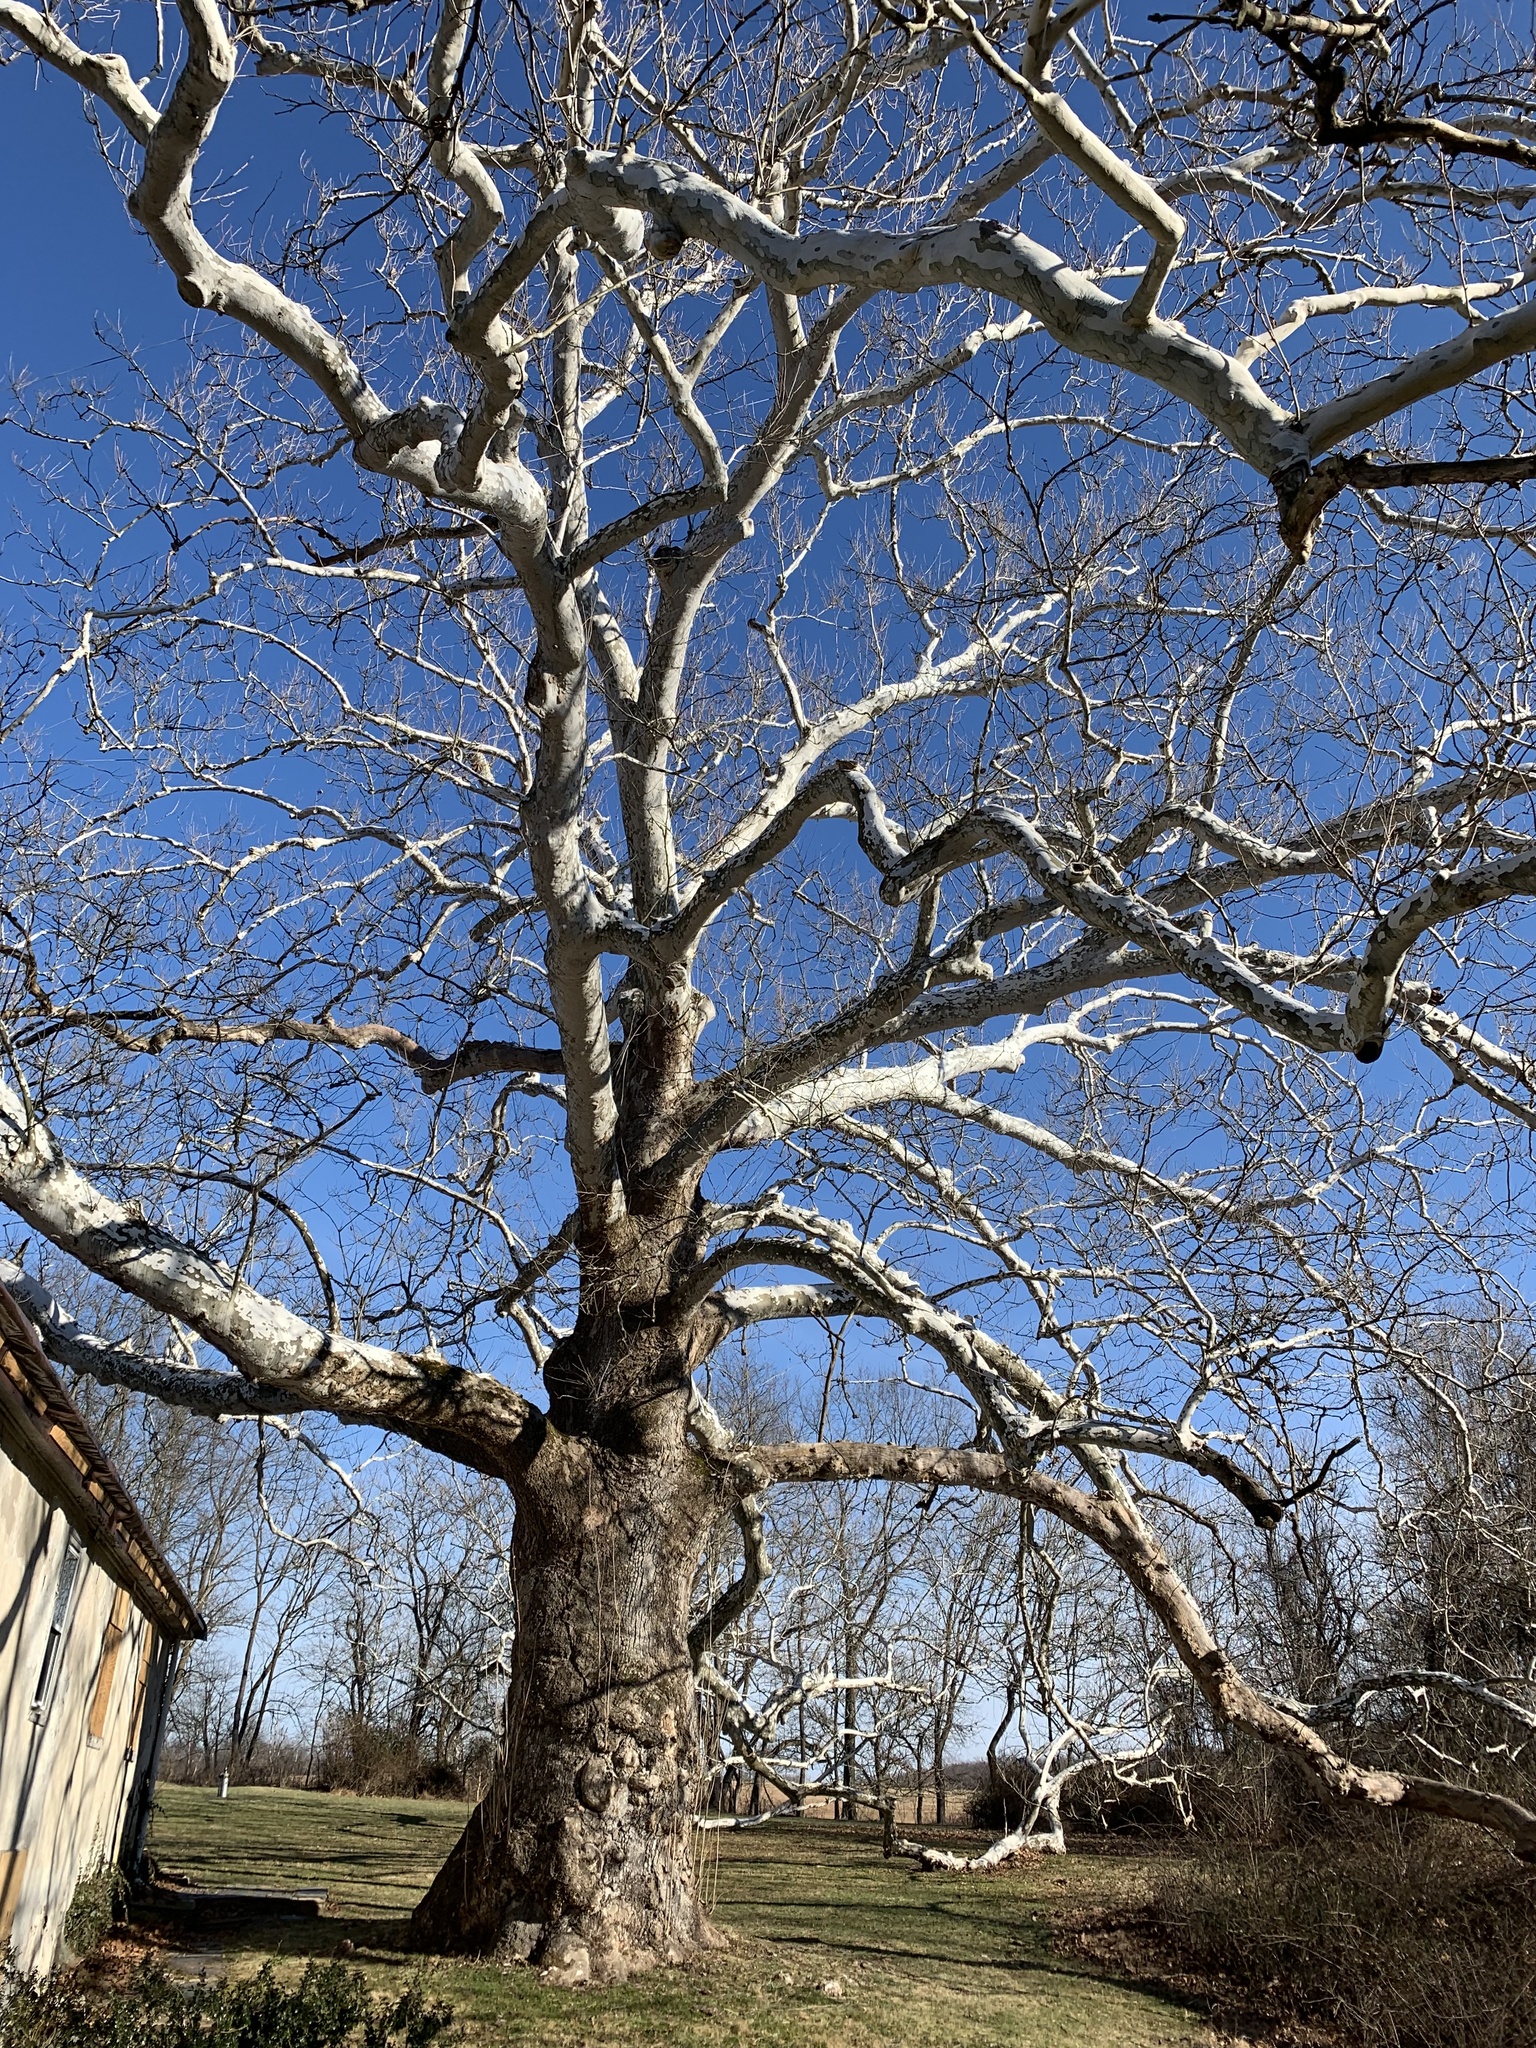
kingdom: Plantae
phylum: Tracheophyta
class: Magnoliopsida
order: Proteales
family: Platanaceae
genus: Platanus
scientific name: Platanus occidentalis
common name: American sycamore
